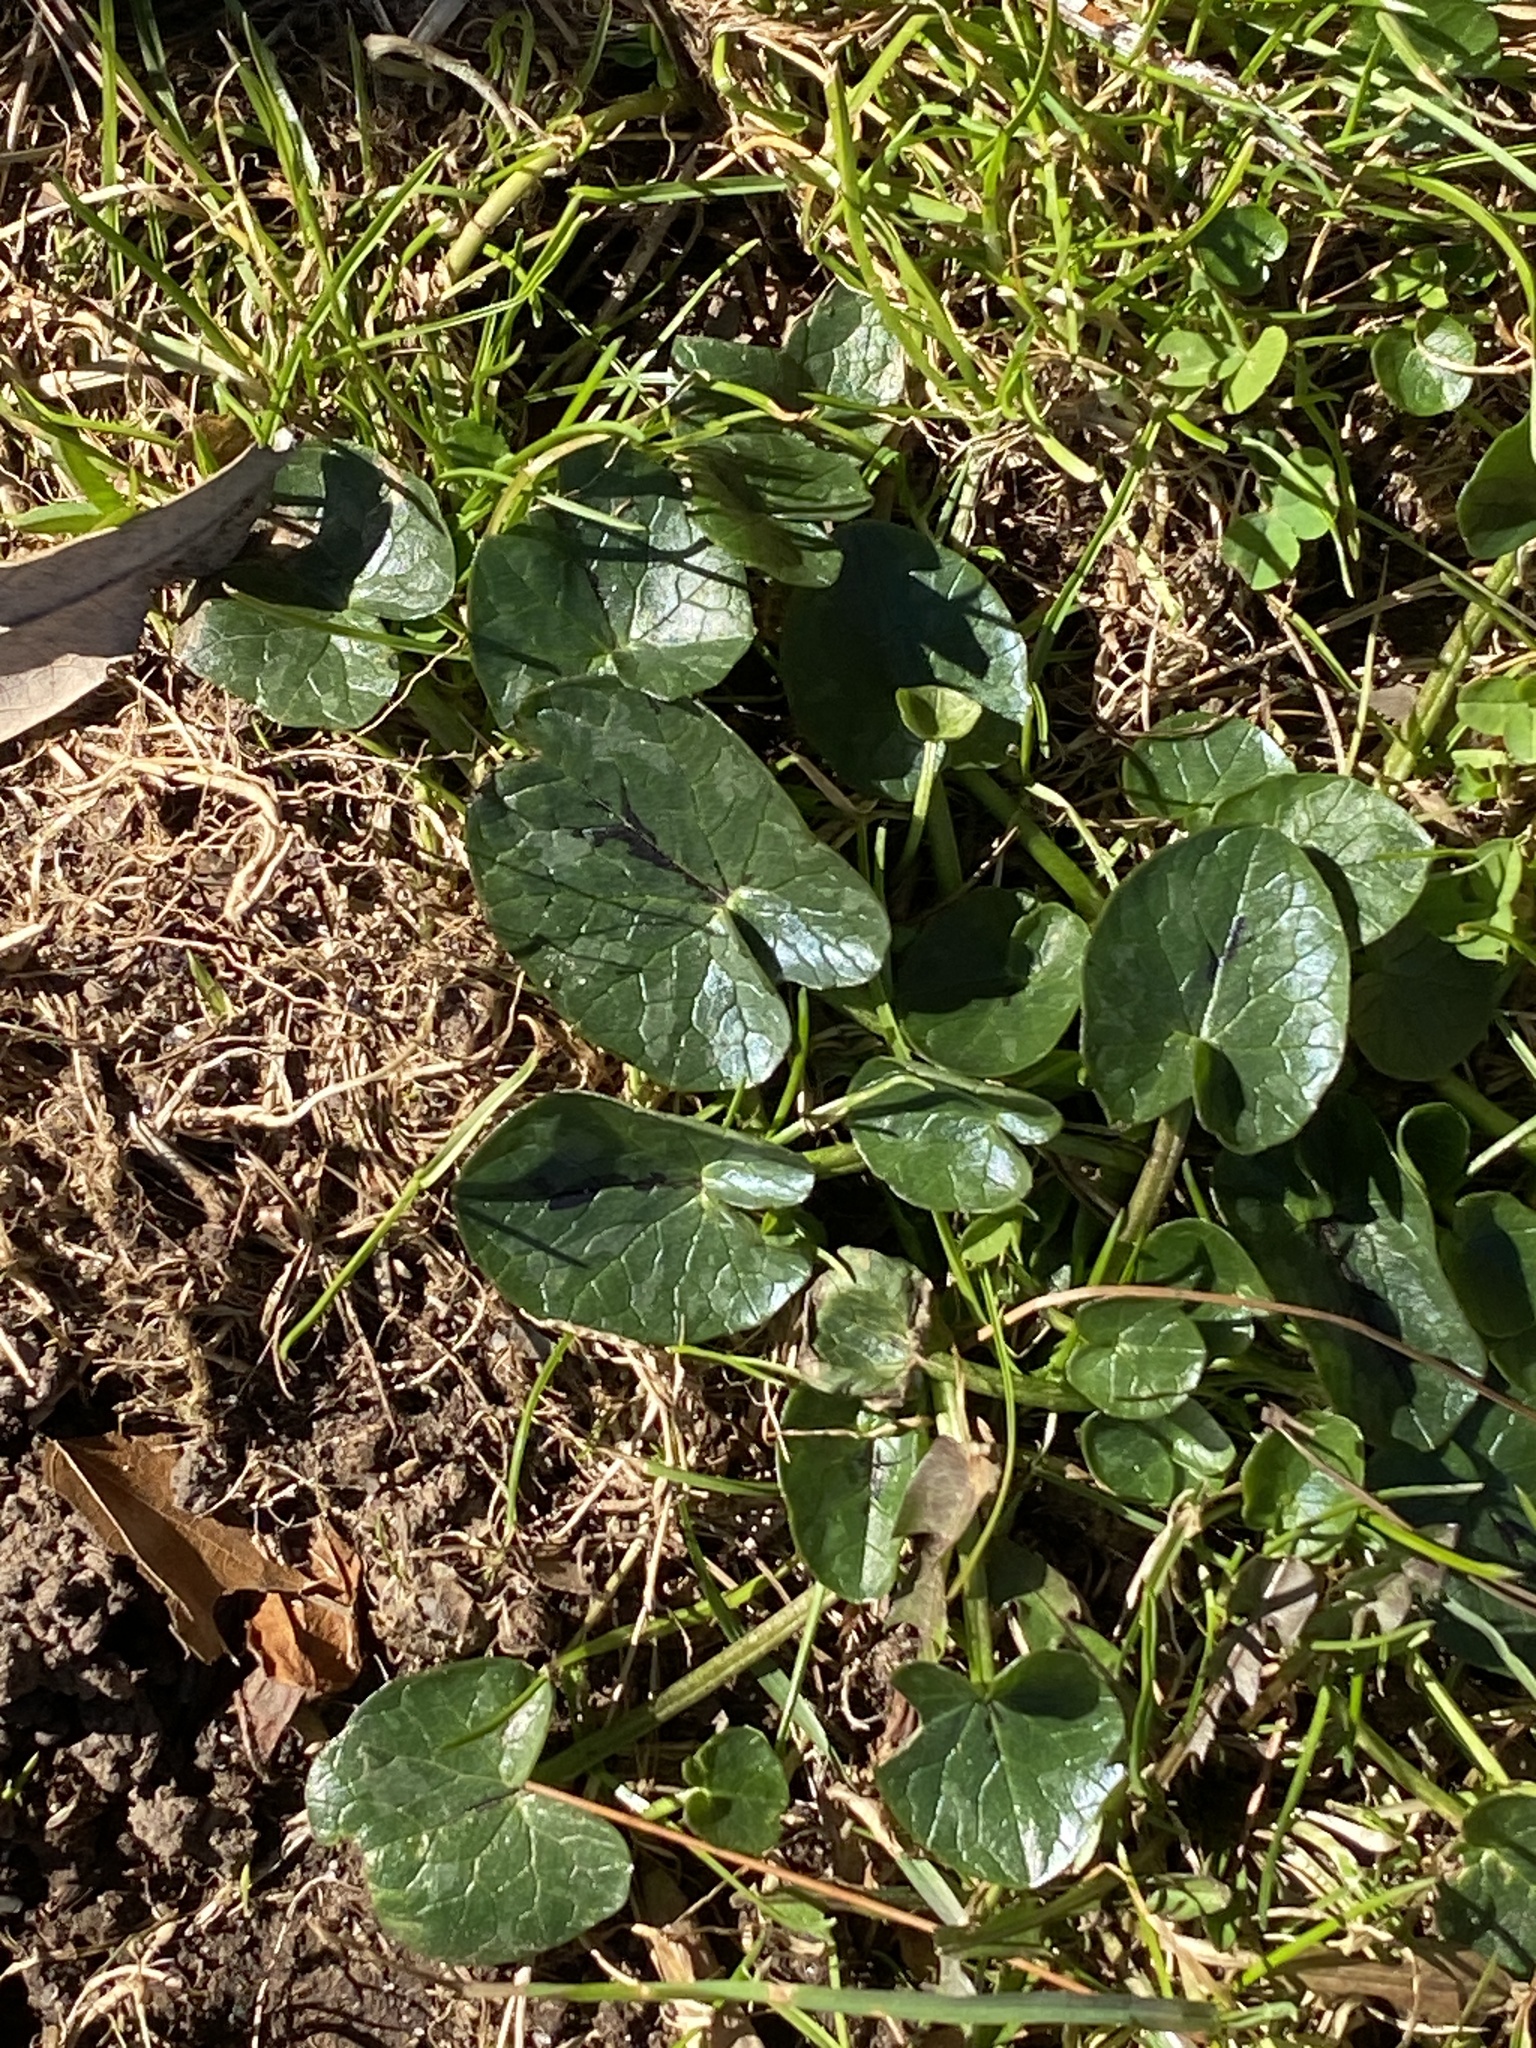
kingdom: Plantae
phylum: Tracheophyta
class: Magnoliopsida
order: Ranunculales
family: Ranunculaceae
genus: Ficaria
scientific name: Ficaria verna
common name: Lesser celandine
